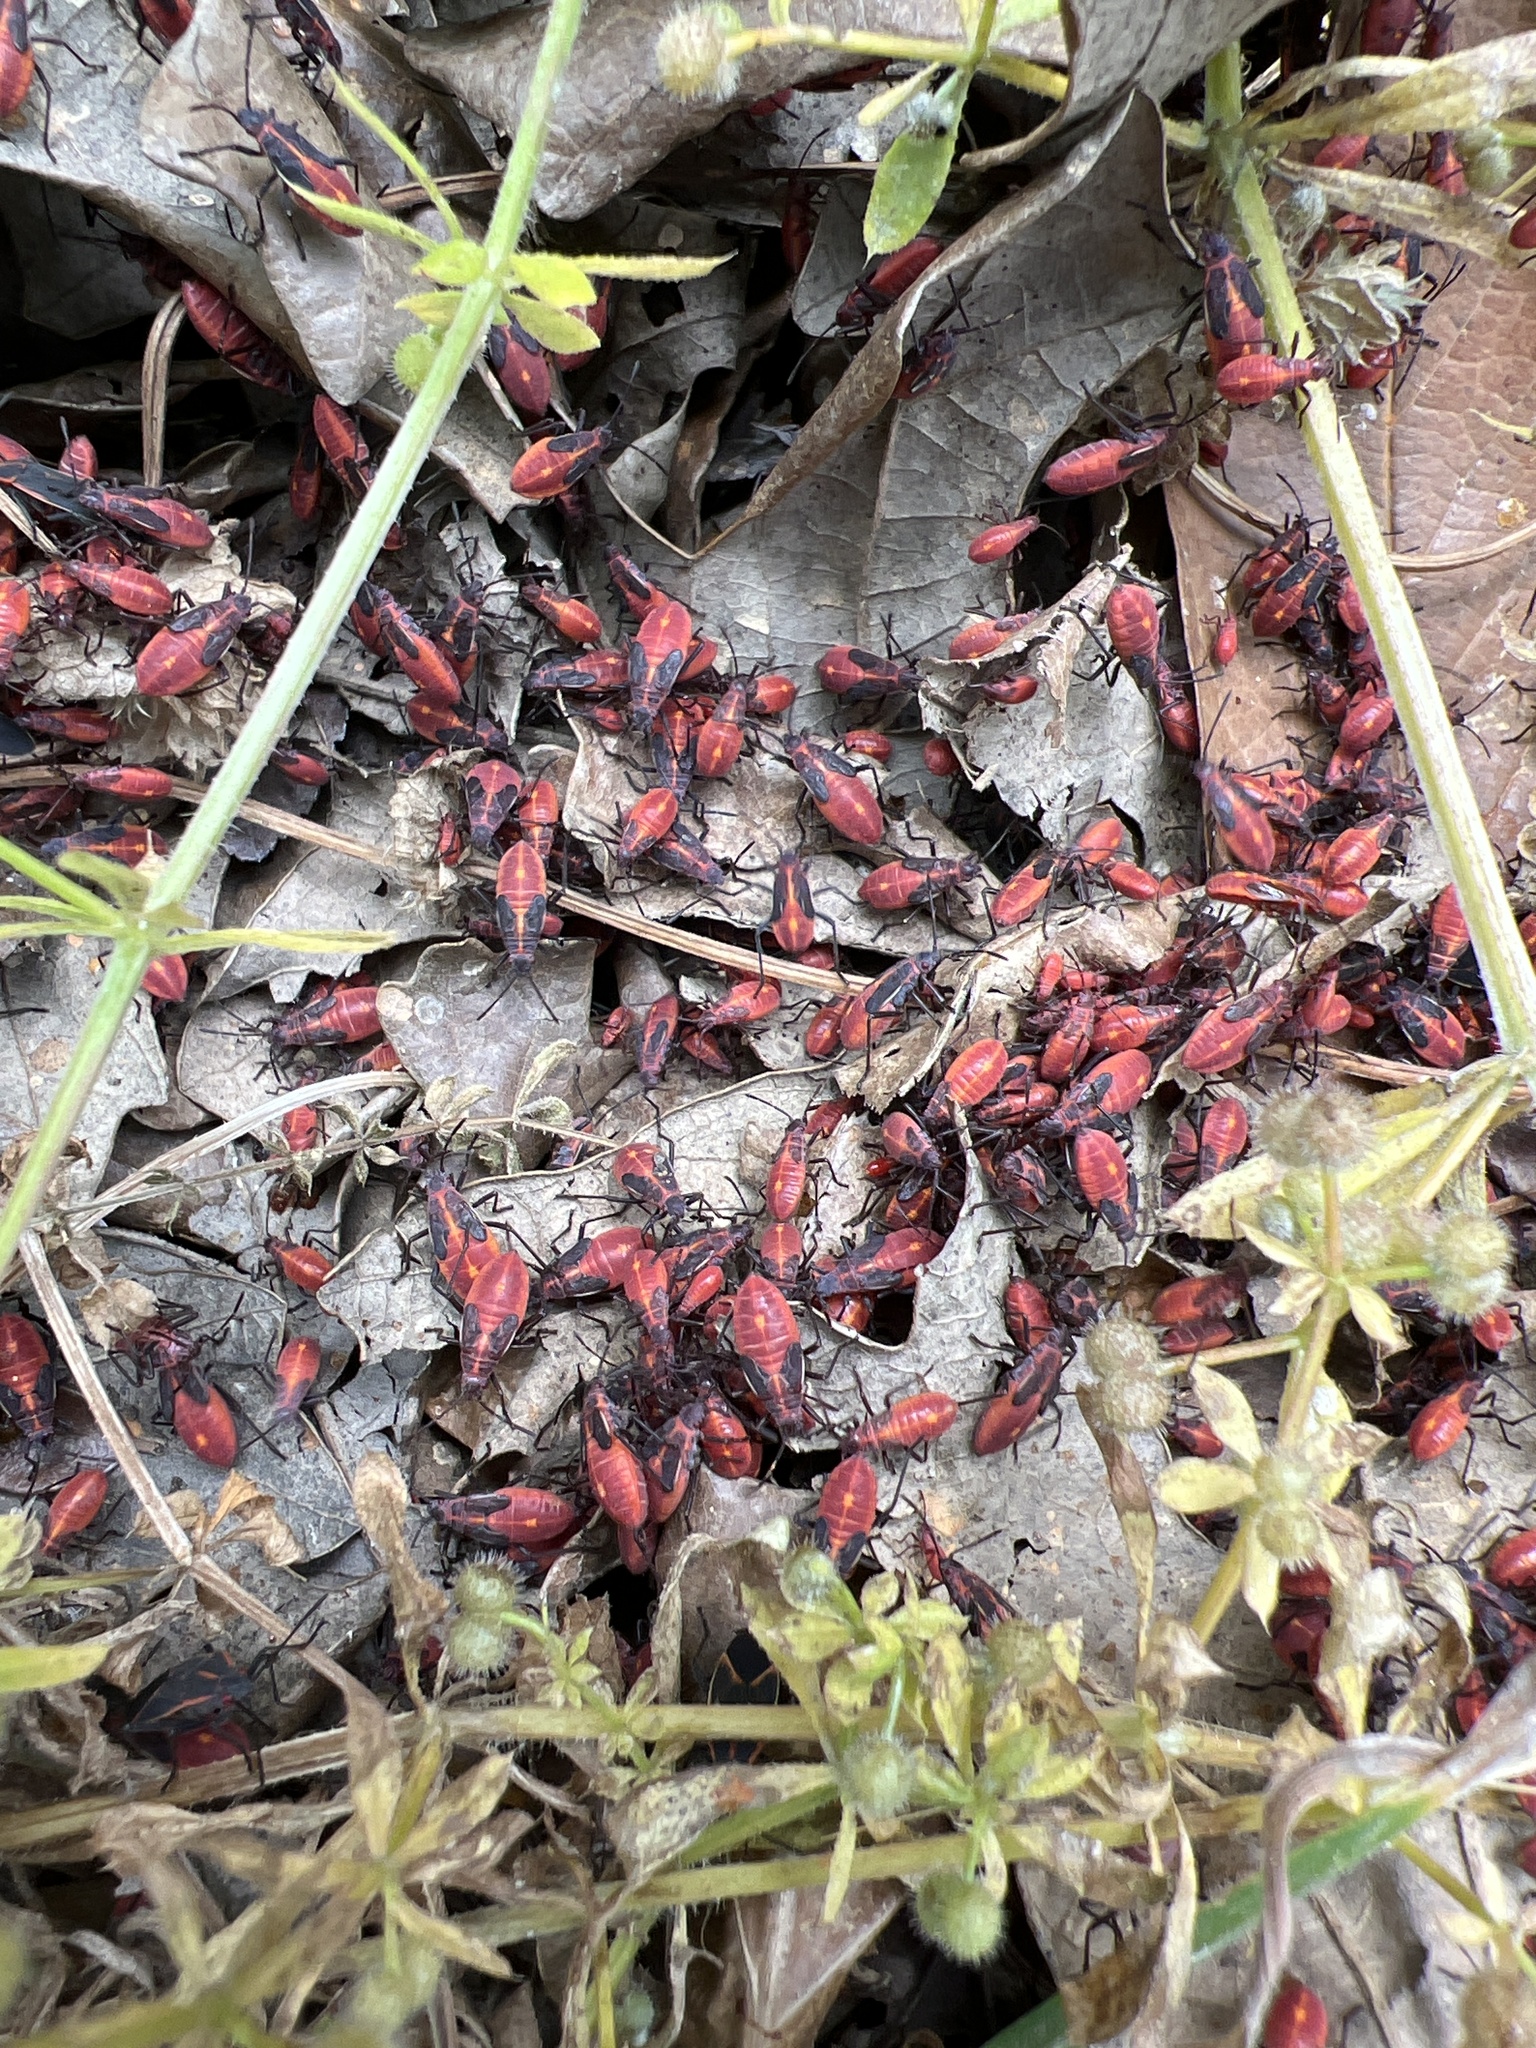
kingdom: Animalia
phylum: Arthropoda
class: Insecta
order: Hemiptera
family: Rhopalidae
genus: Boisea
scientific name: Boisea trivittata
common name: Boxelder bug
